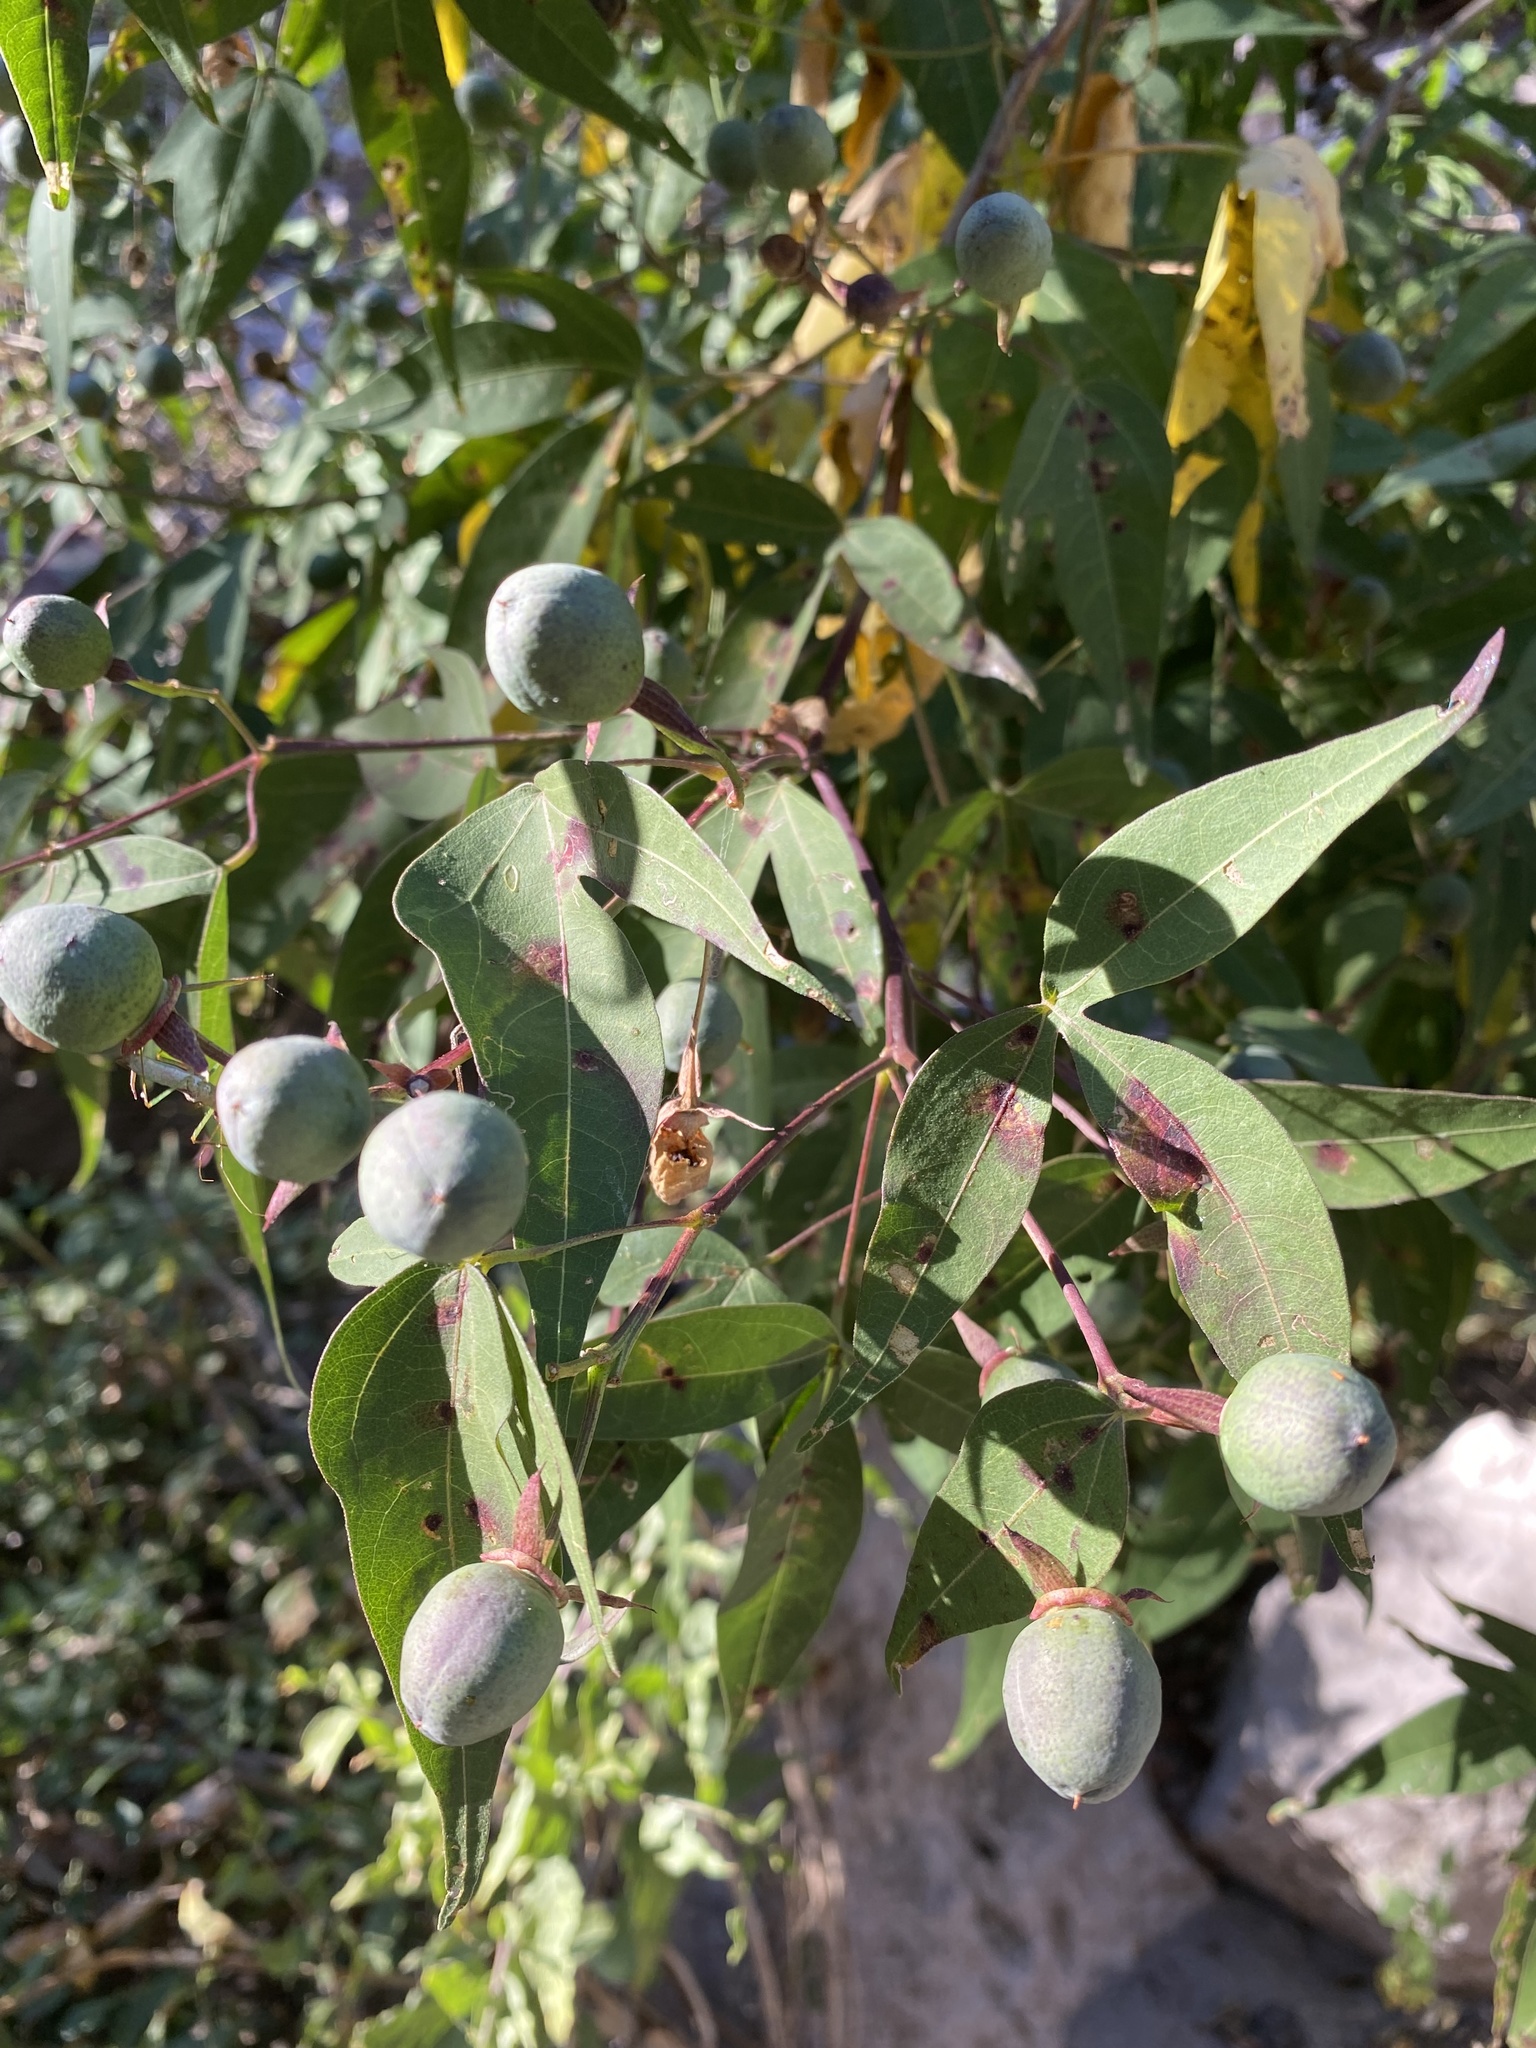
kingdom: Plantae
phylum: Tracheophyta
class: Magnoliopsida
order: Malvales
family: Malvaceae
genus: Gossypium
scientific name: Gossypium thurberi
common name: Desert cotton
